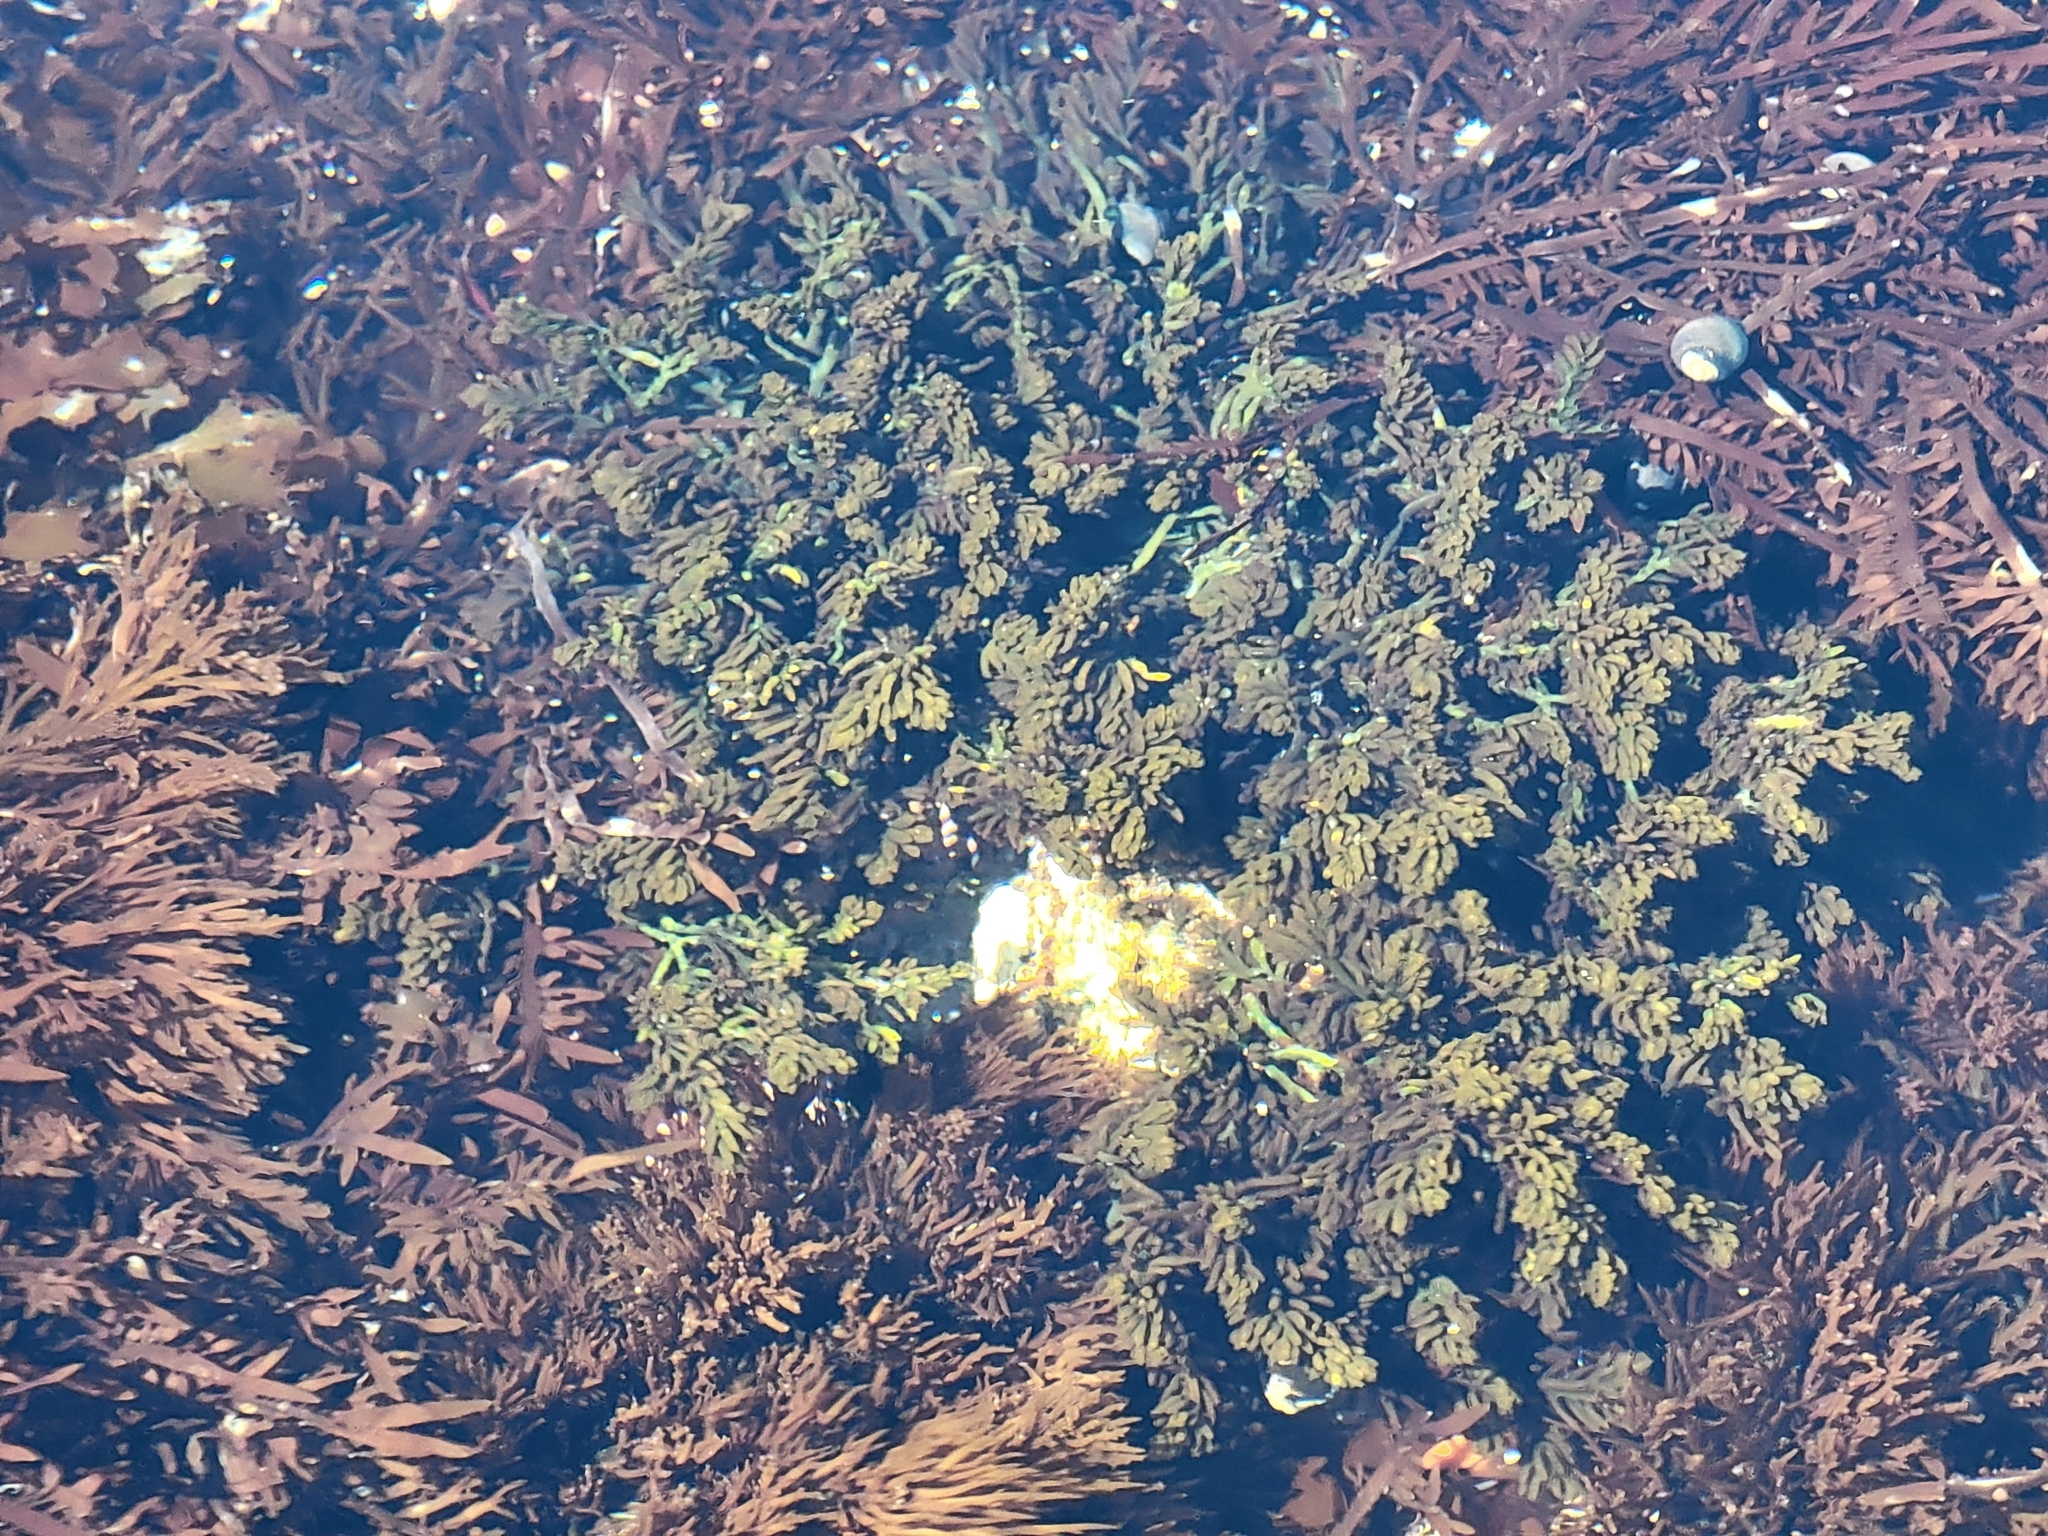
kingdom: Plantae
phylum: Rhodophyta
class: Florideophyceae
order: Rhodymeniales
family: Champiaceae
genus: Neogastroclonium
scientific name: Neogastroclonium subarticulatum
